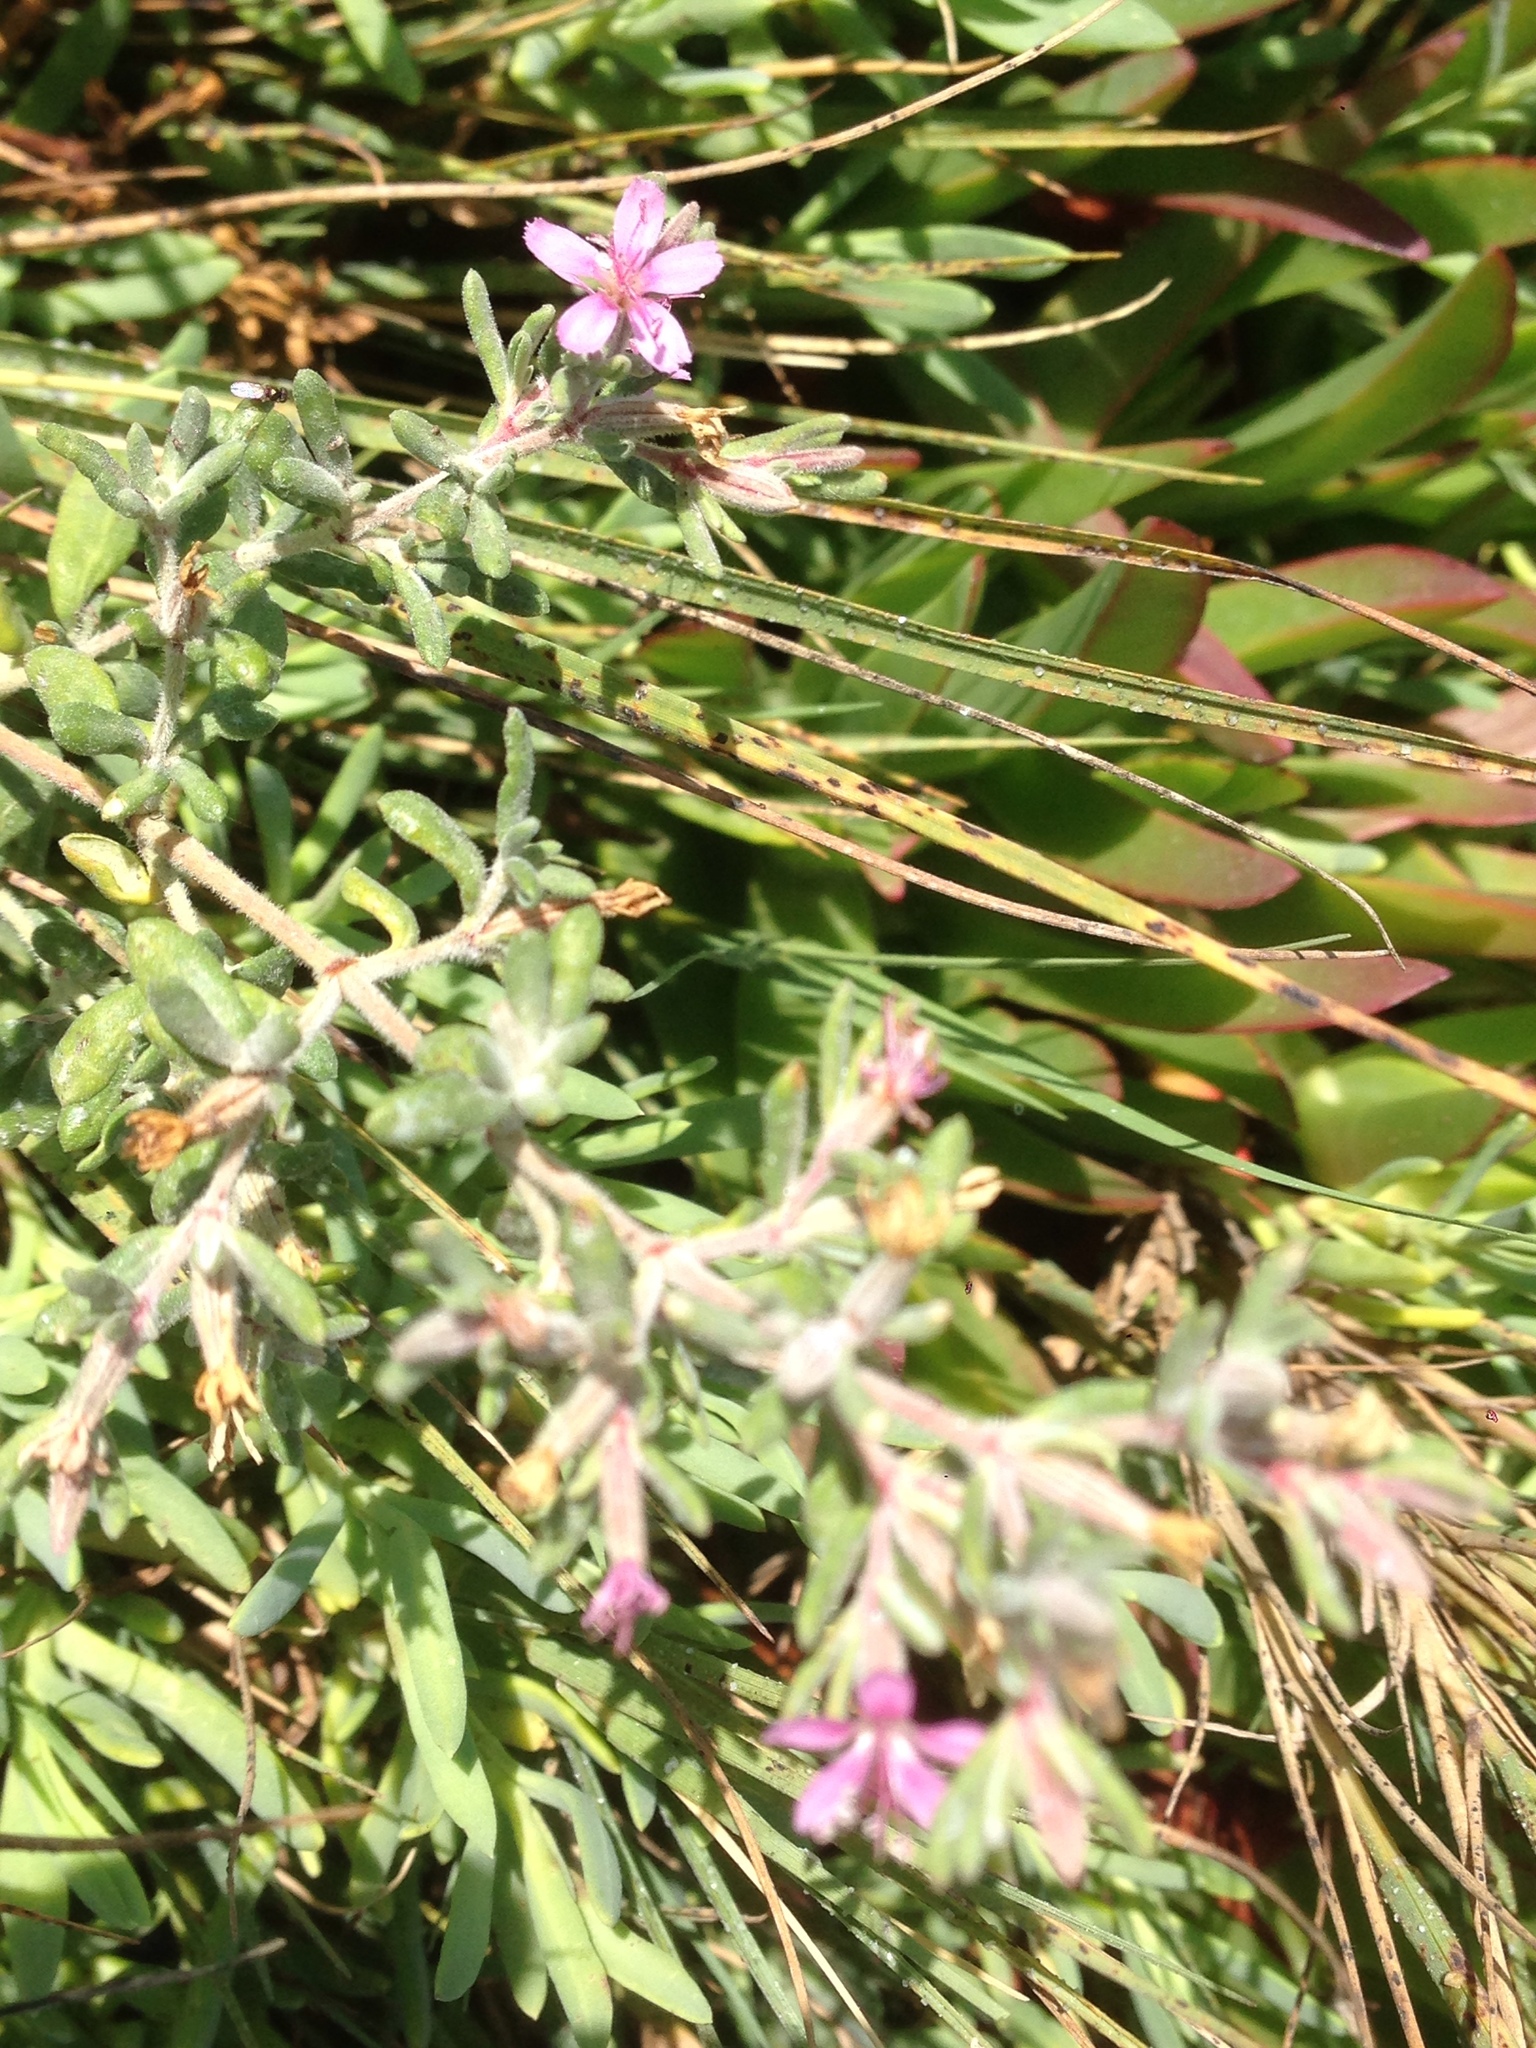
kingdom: Plantae
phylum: Tracheophyta
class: Magnoliopsida
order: Caryophyllales
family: Frankeniaceae
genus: Frankenia
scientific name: Frankenia salina
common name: Alkali seaheath
